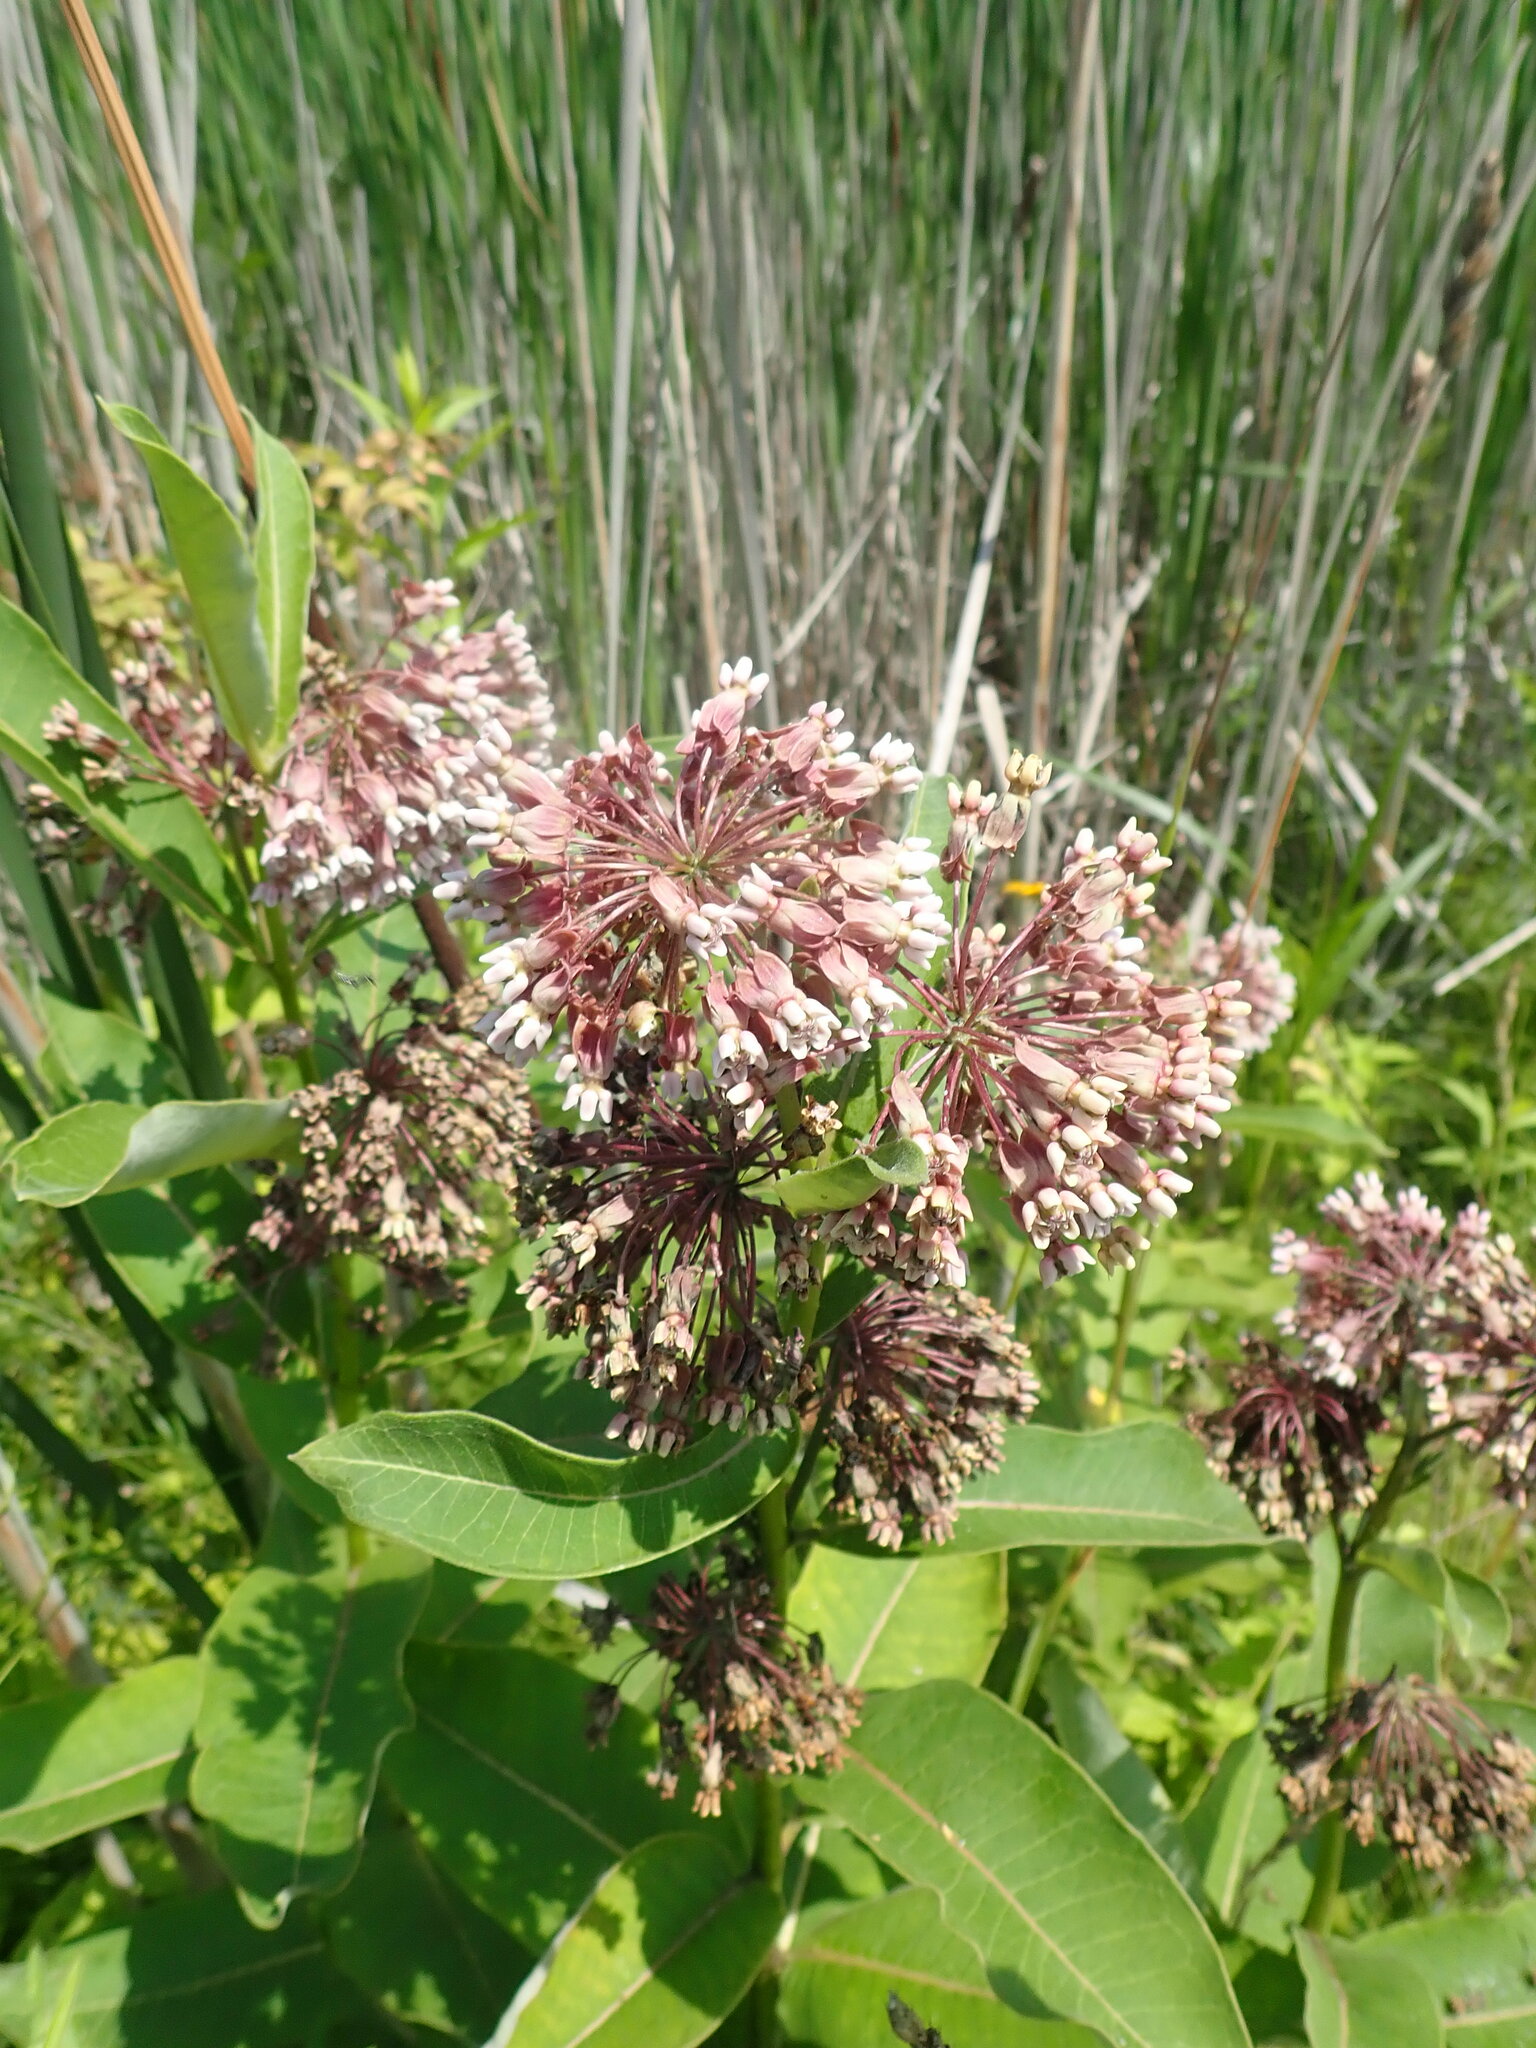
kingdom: Plantae
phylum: Tracheophyta
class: Magnoliopsida
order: Gentianales
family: Apocynaceae
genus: Asclepias
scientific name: Asclepias syriaca
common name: Common milkweed
